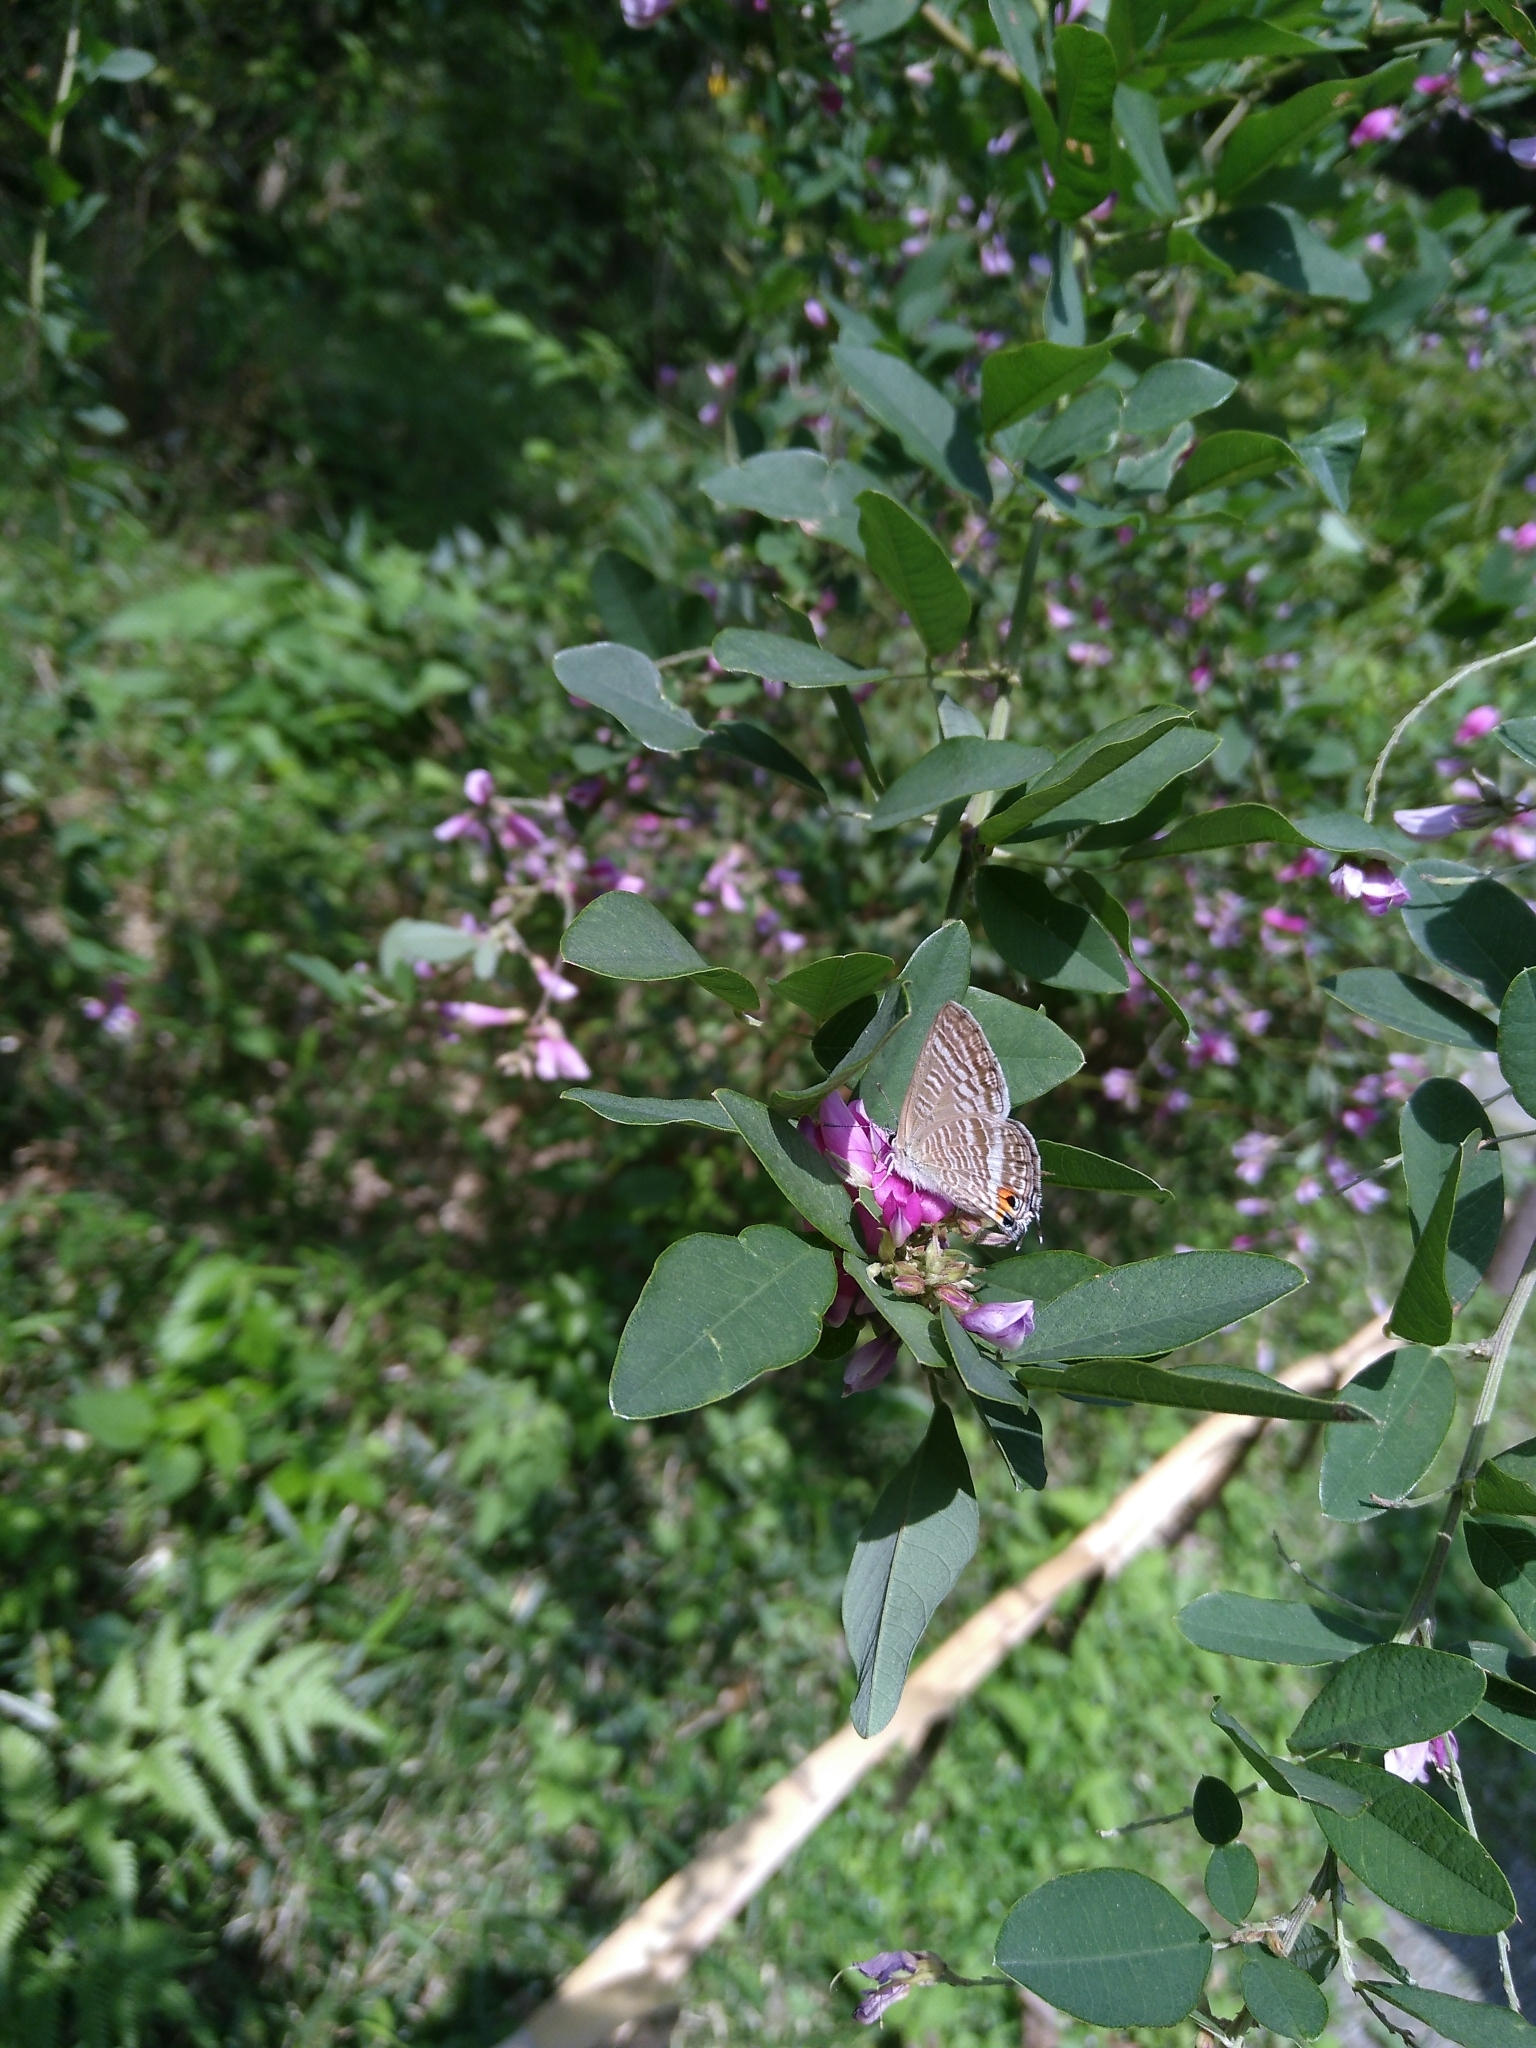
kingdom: Animalia
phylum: Arthropoda
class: Insecta
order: Lepidoptera
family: Lycaenidae
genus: Lampides
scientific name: Lampides boeticus
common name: Long-tailed blue
